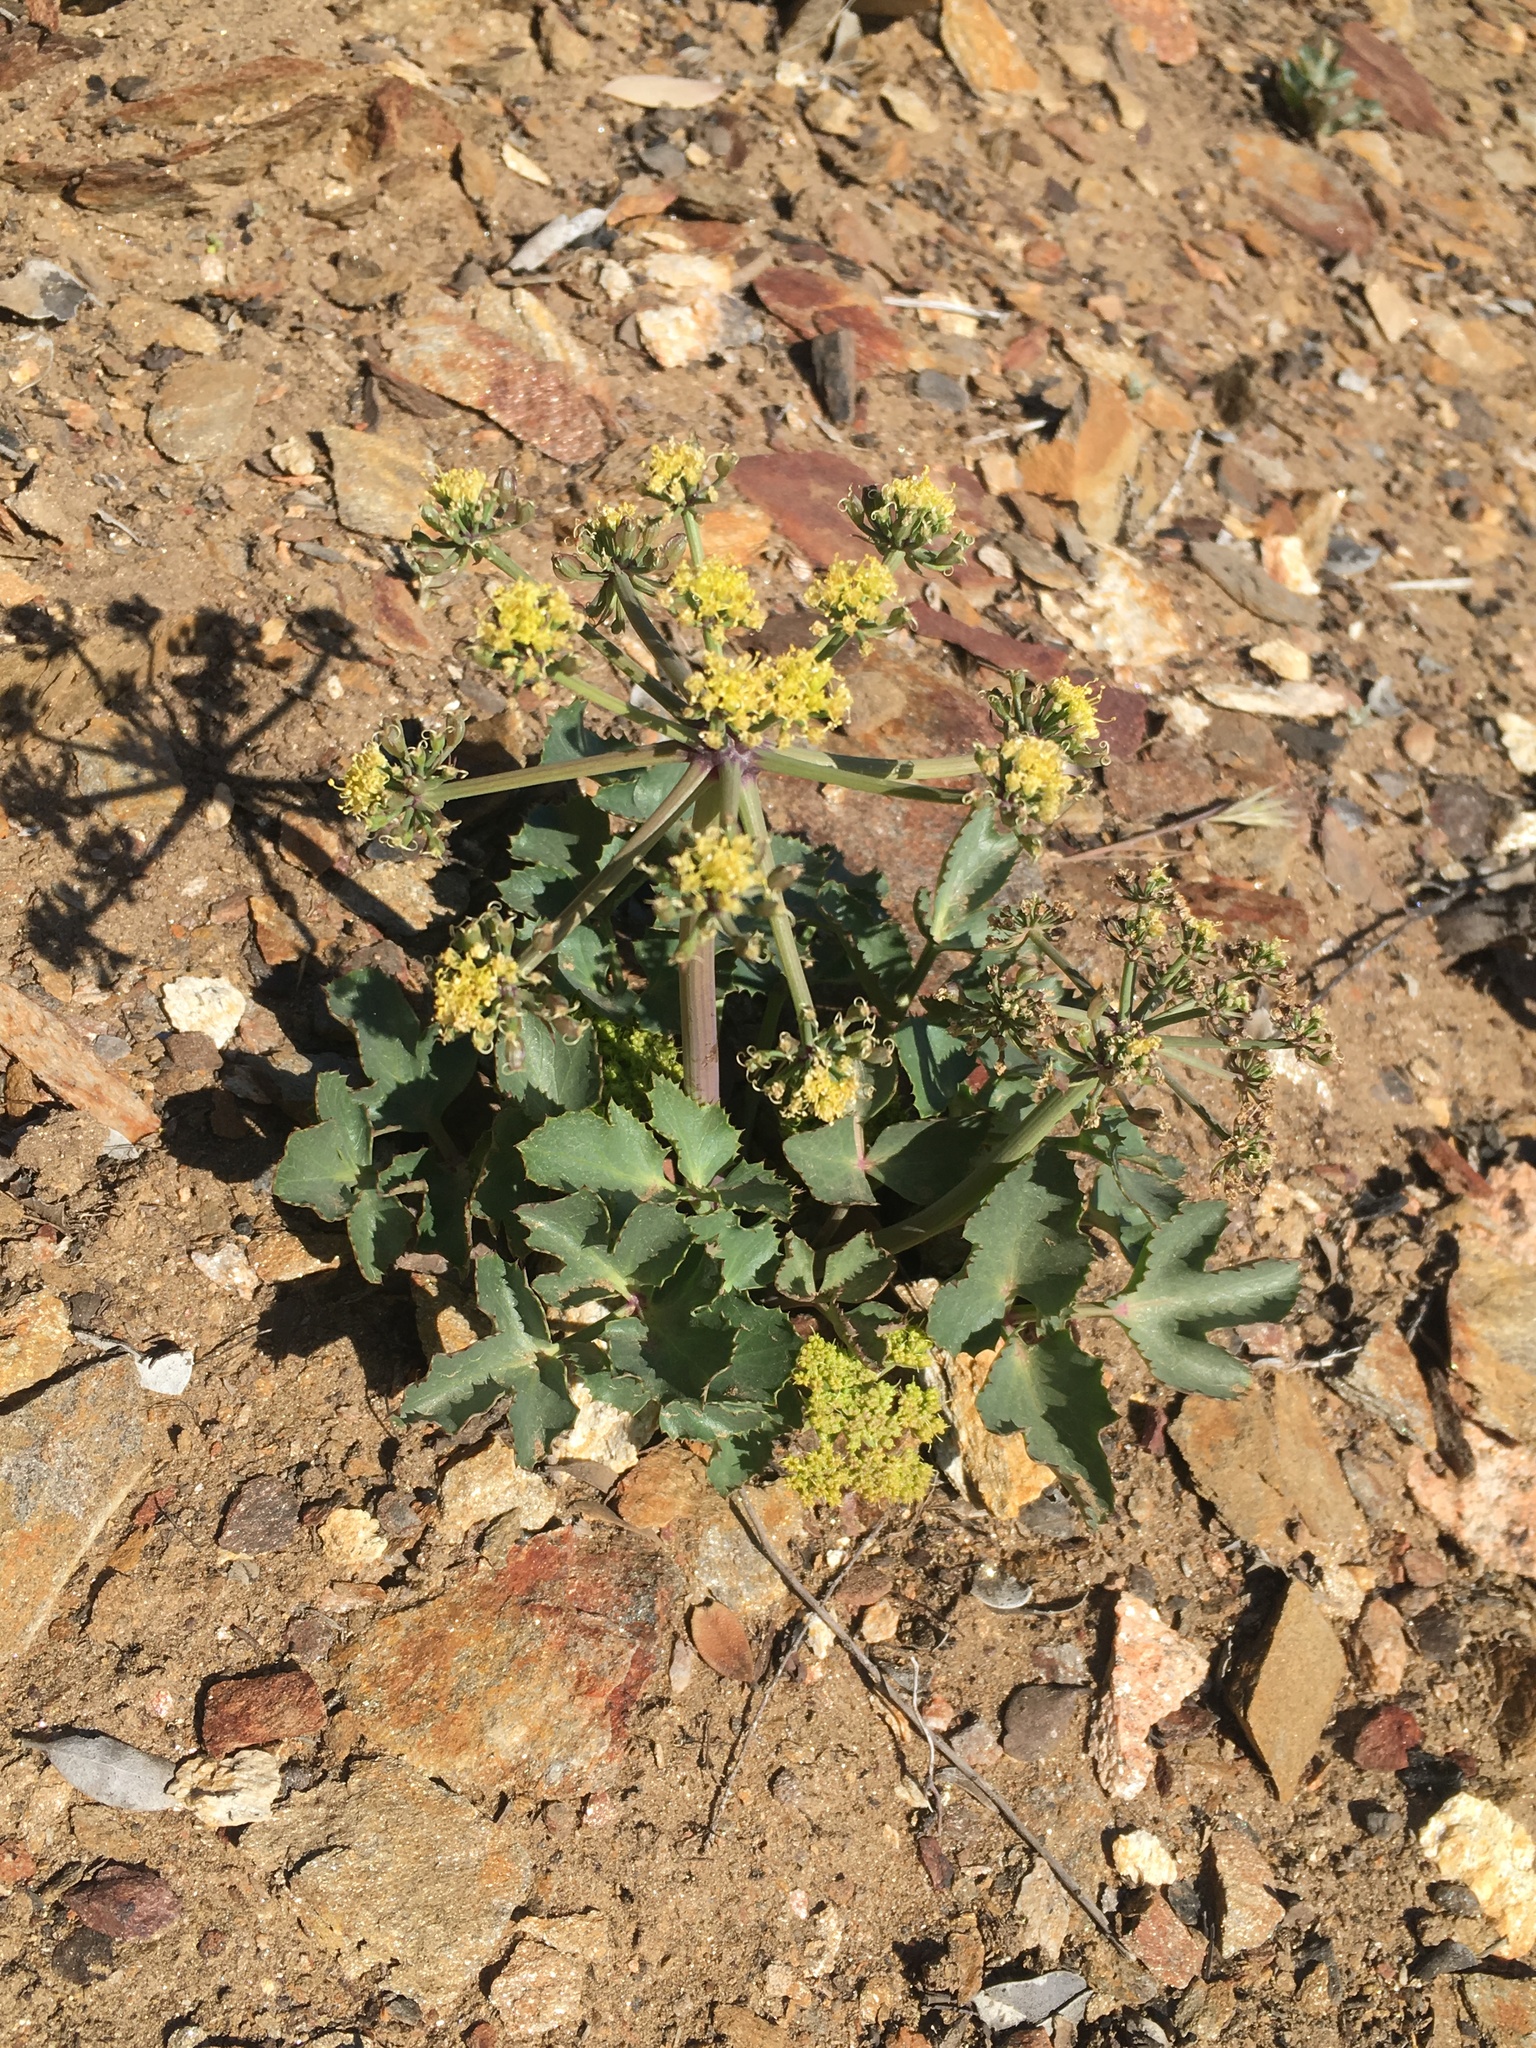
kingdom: Plantae
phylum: Tracheophyta
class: Magnoliopsida
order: Apiales
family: Apiaceae
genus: Lomatium
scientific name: Lomatium lucidum
